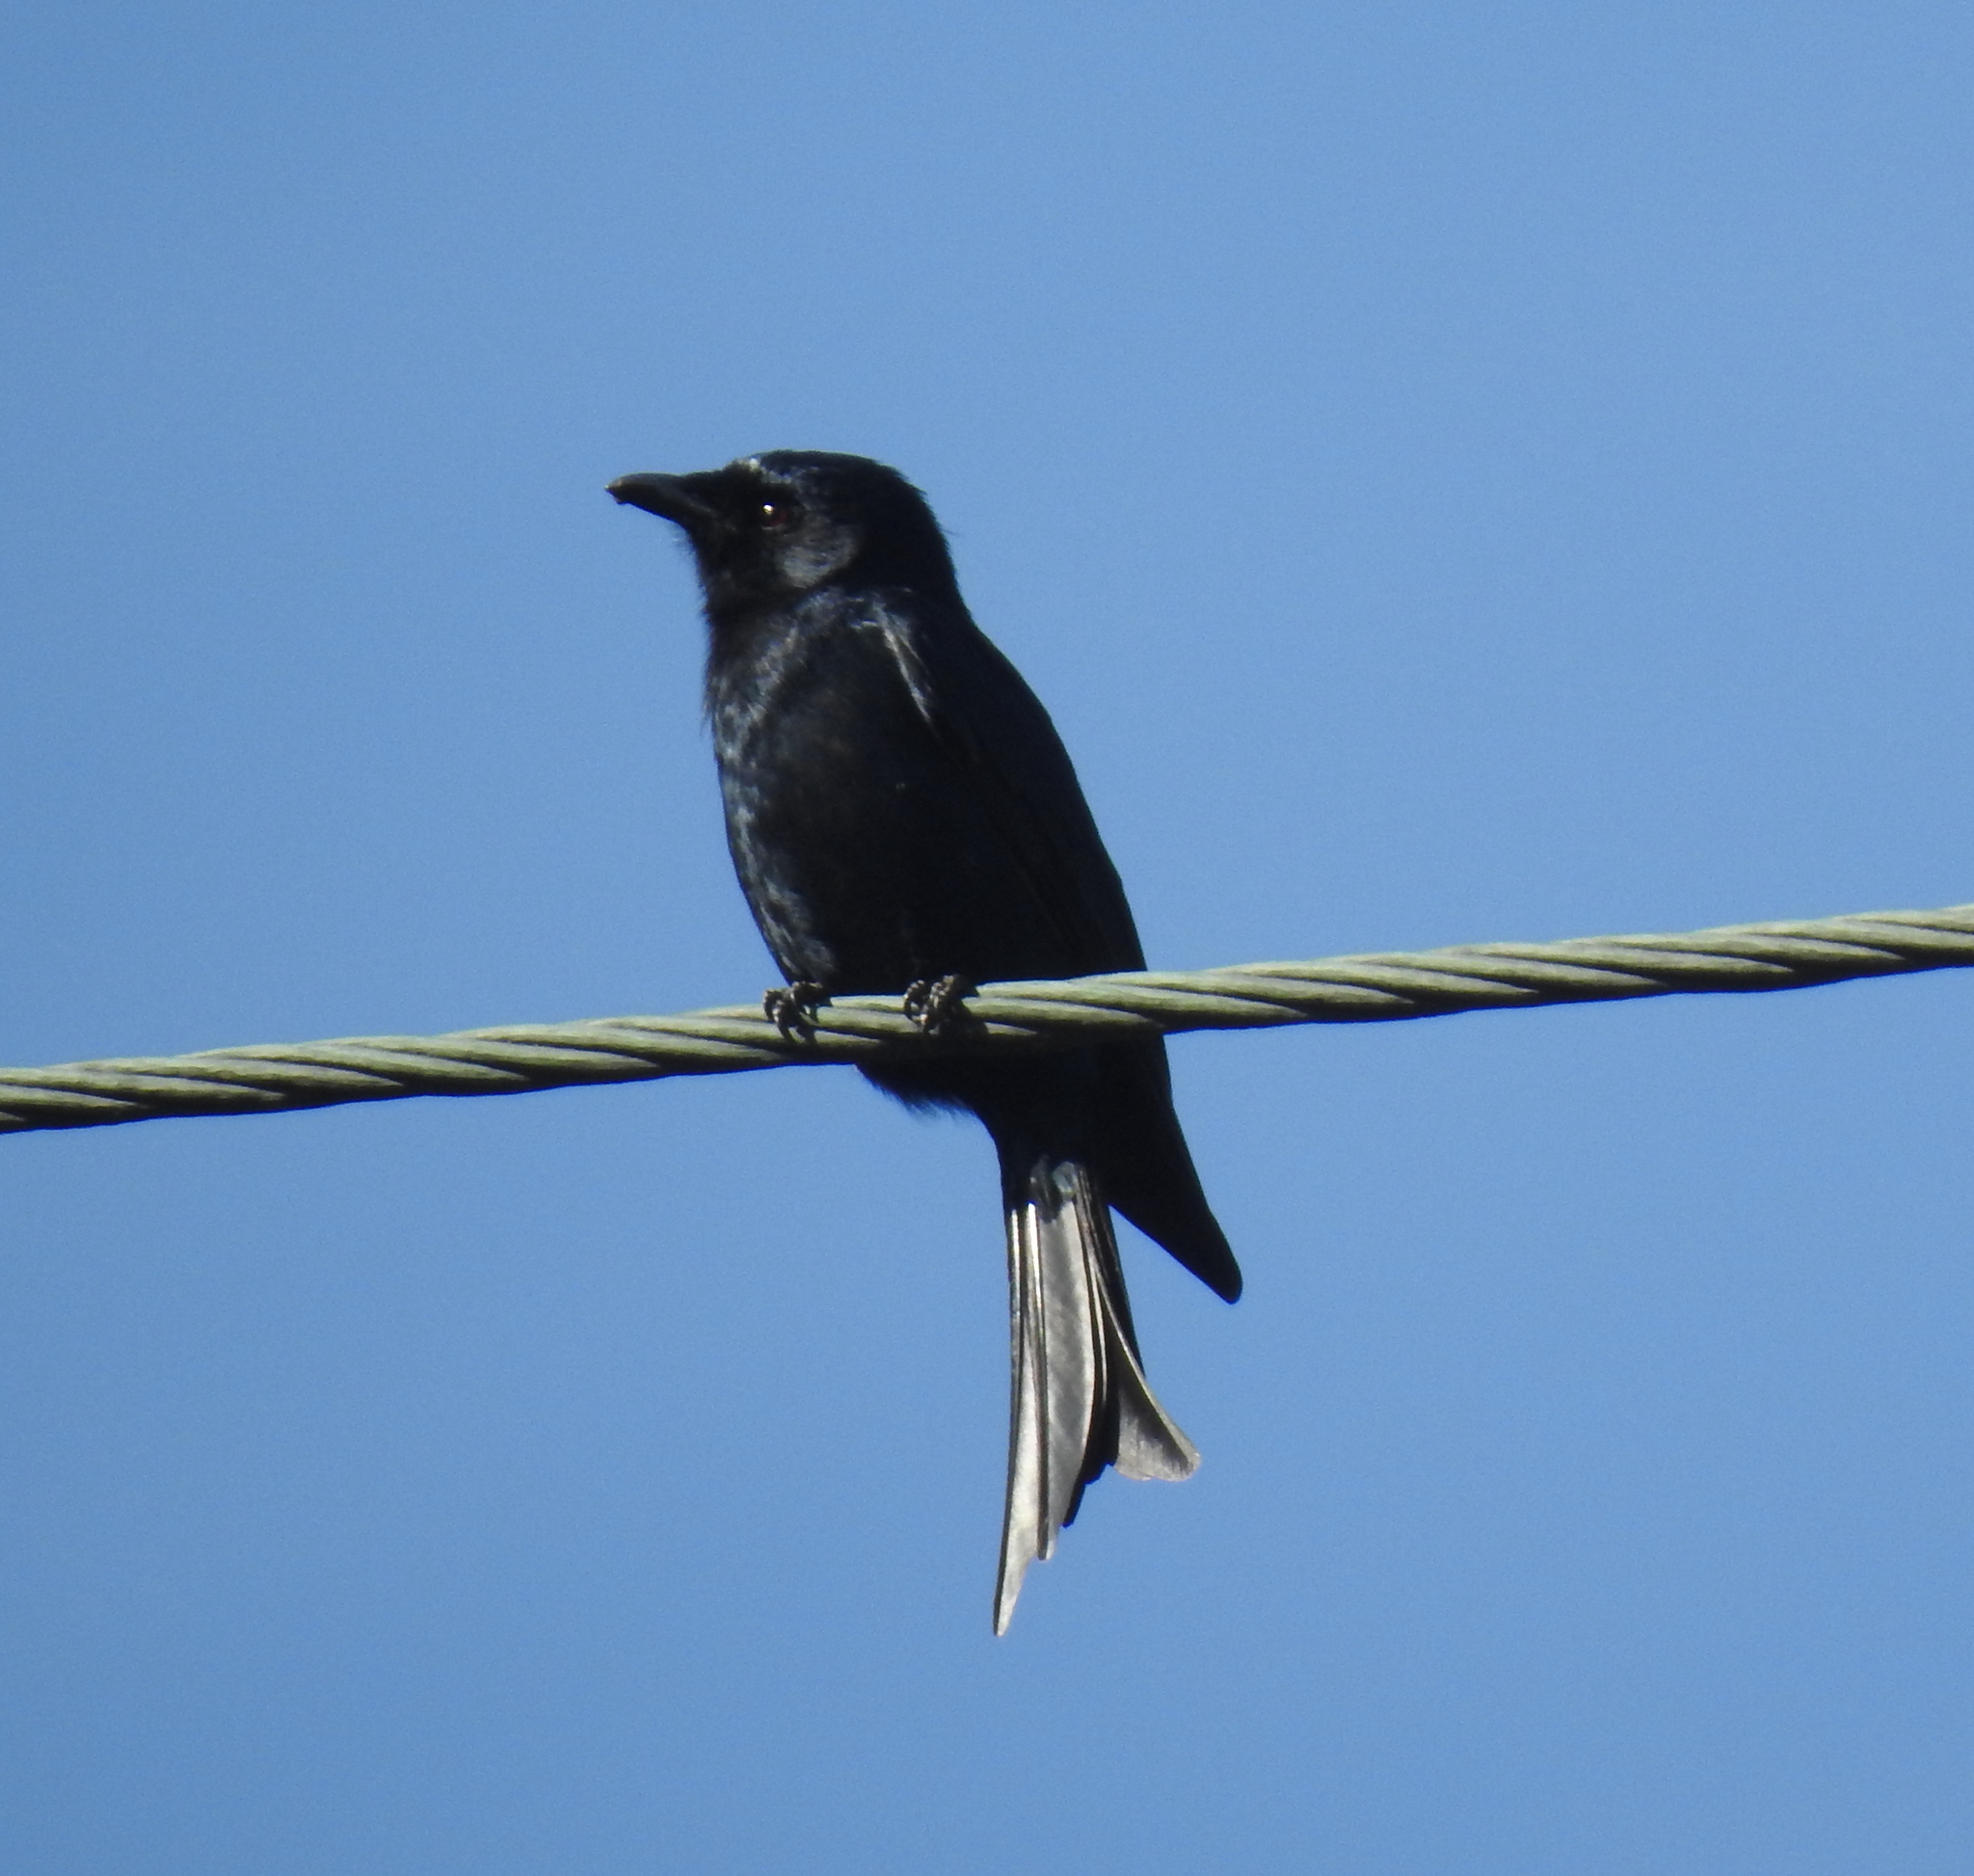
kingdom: Animalia
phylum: Chordata
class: Aves
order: Passeriformes
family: Dicruridae
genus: Dicrurus
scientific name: Dicrurus adsimilis
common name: Fork-tailed drongo
